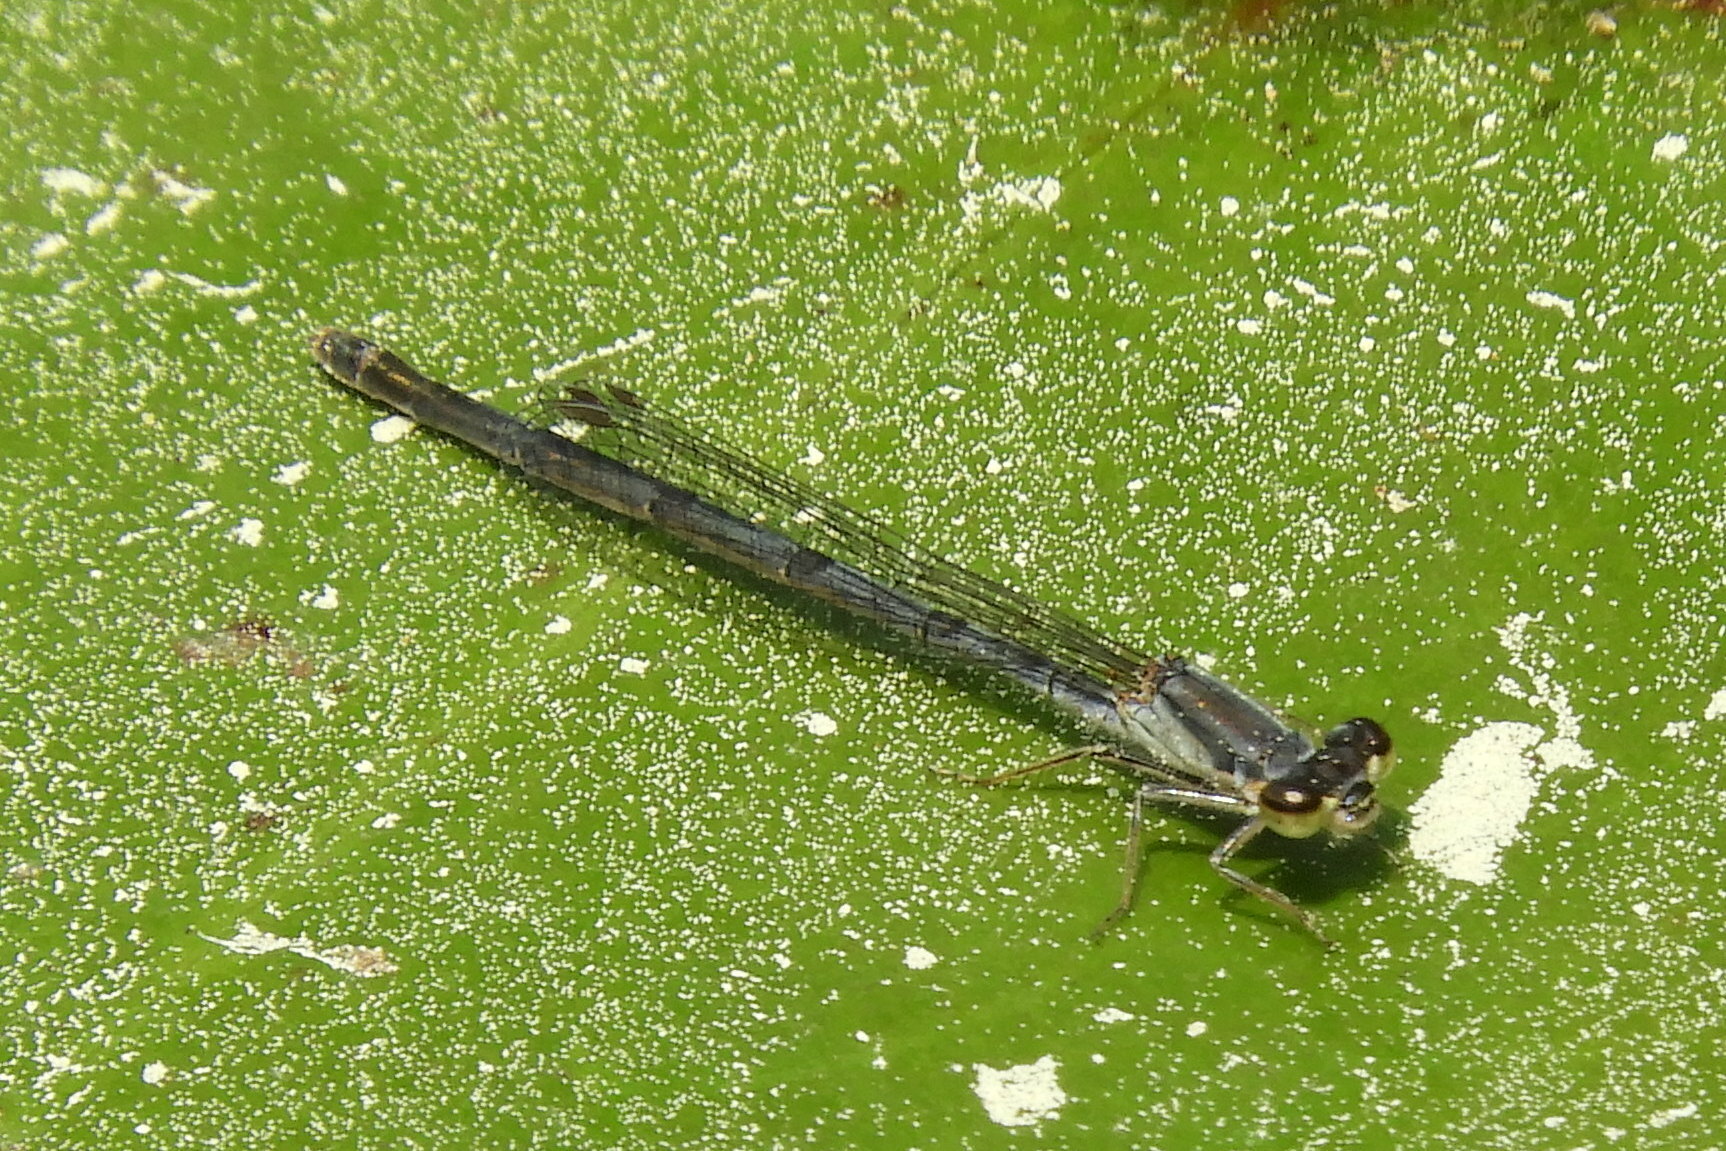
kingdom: Animalia
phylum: Arthropoda
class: Insecta
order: Odonata
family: Coenagrionidae
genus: Ischnura
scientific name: Ischnura posita
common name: Fragile forktail
